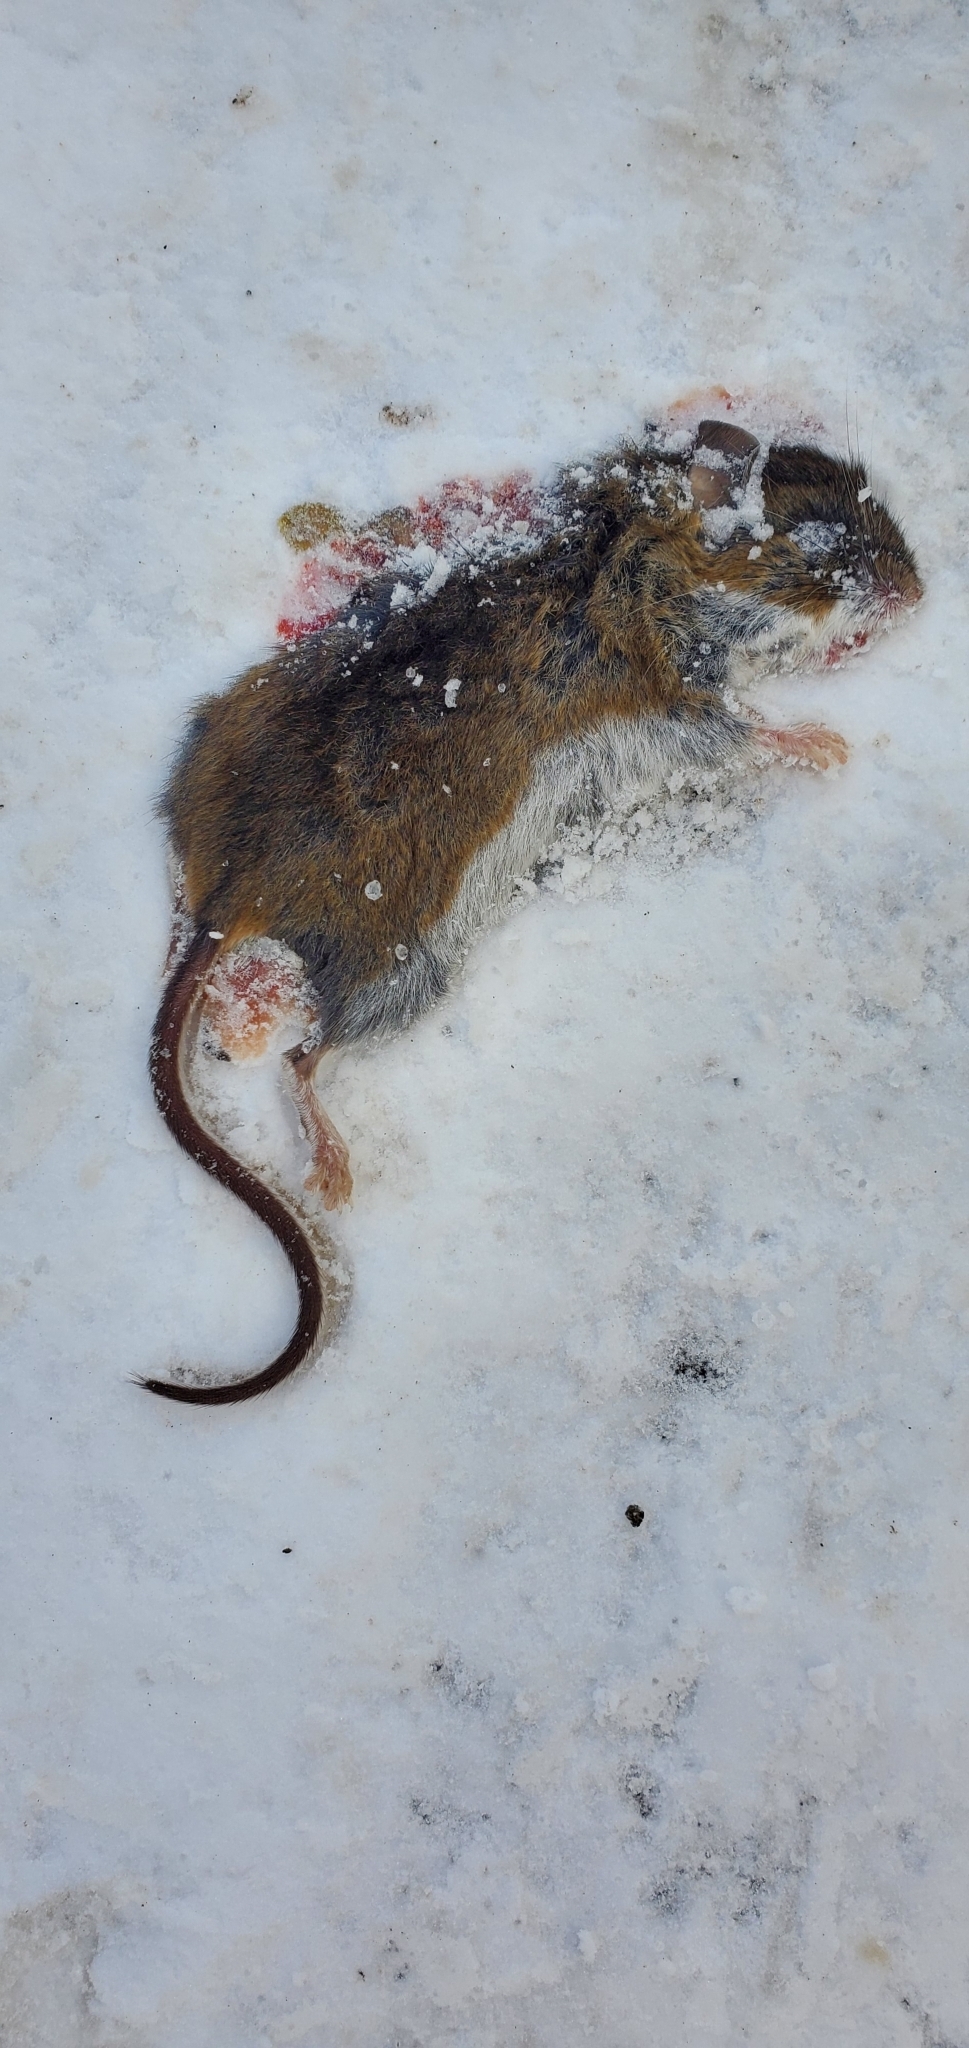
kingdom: Animalia
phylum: Chordata
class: Mammalia
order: Rodentia
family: Cricetidae
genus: Peromyscus
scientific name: Peromyscus maniculatus
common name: Deer mouse
